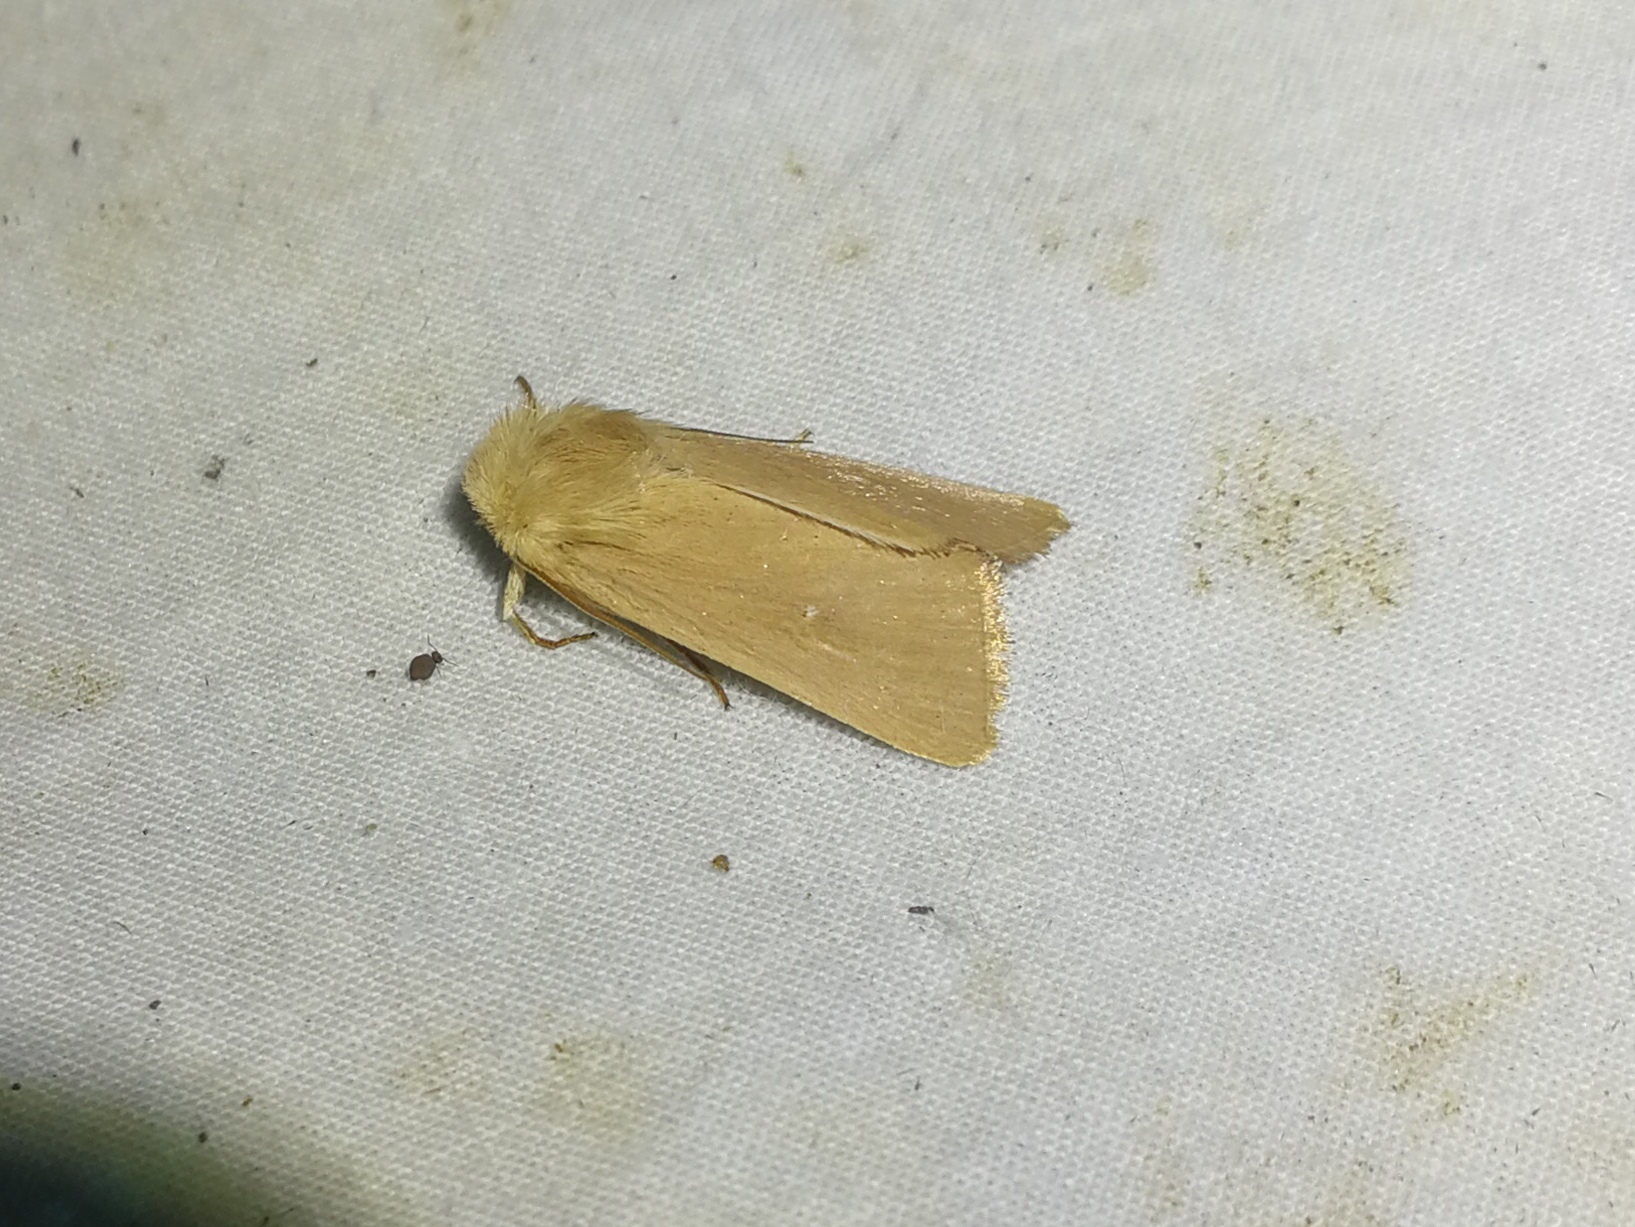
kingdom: Animalia
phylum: Arthropoda
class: Insecta
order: Lepidoptera
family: Noctuidae
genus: Mythimna
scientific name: Mythimna sicula
